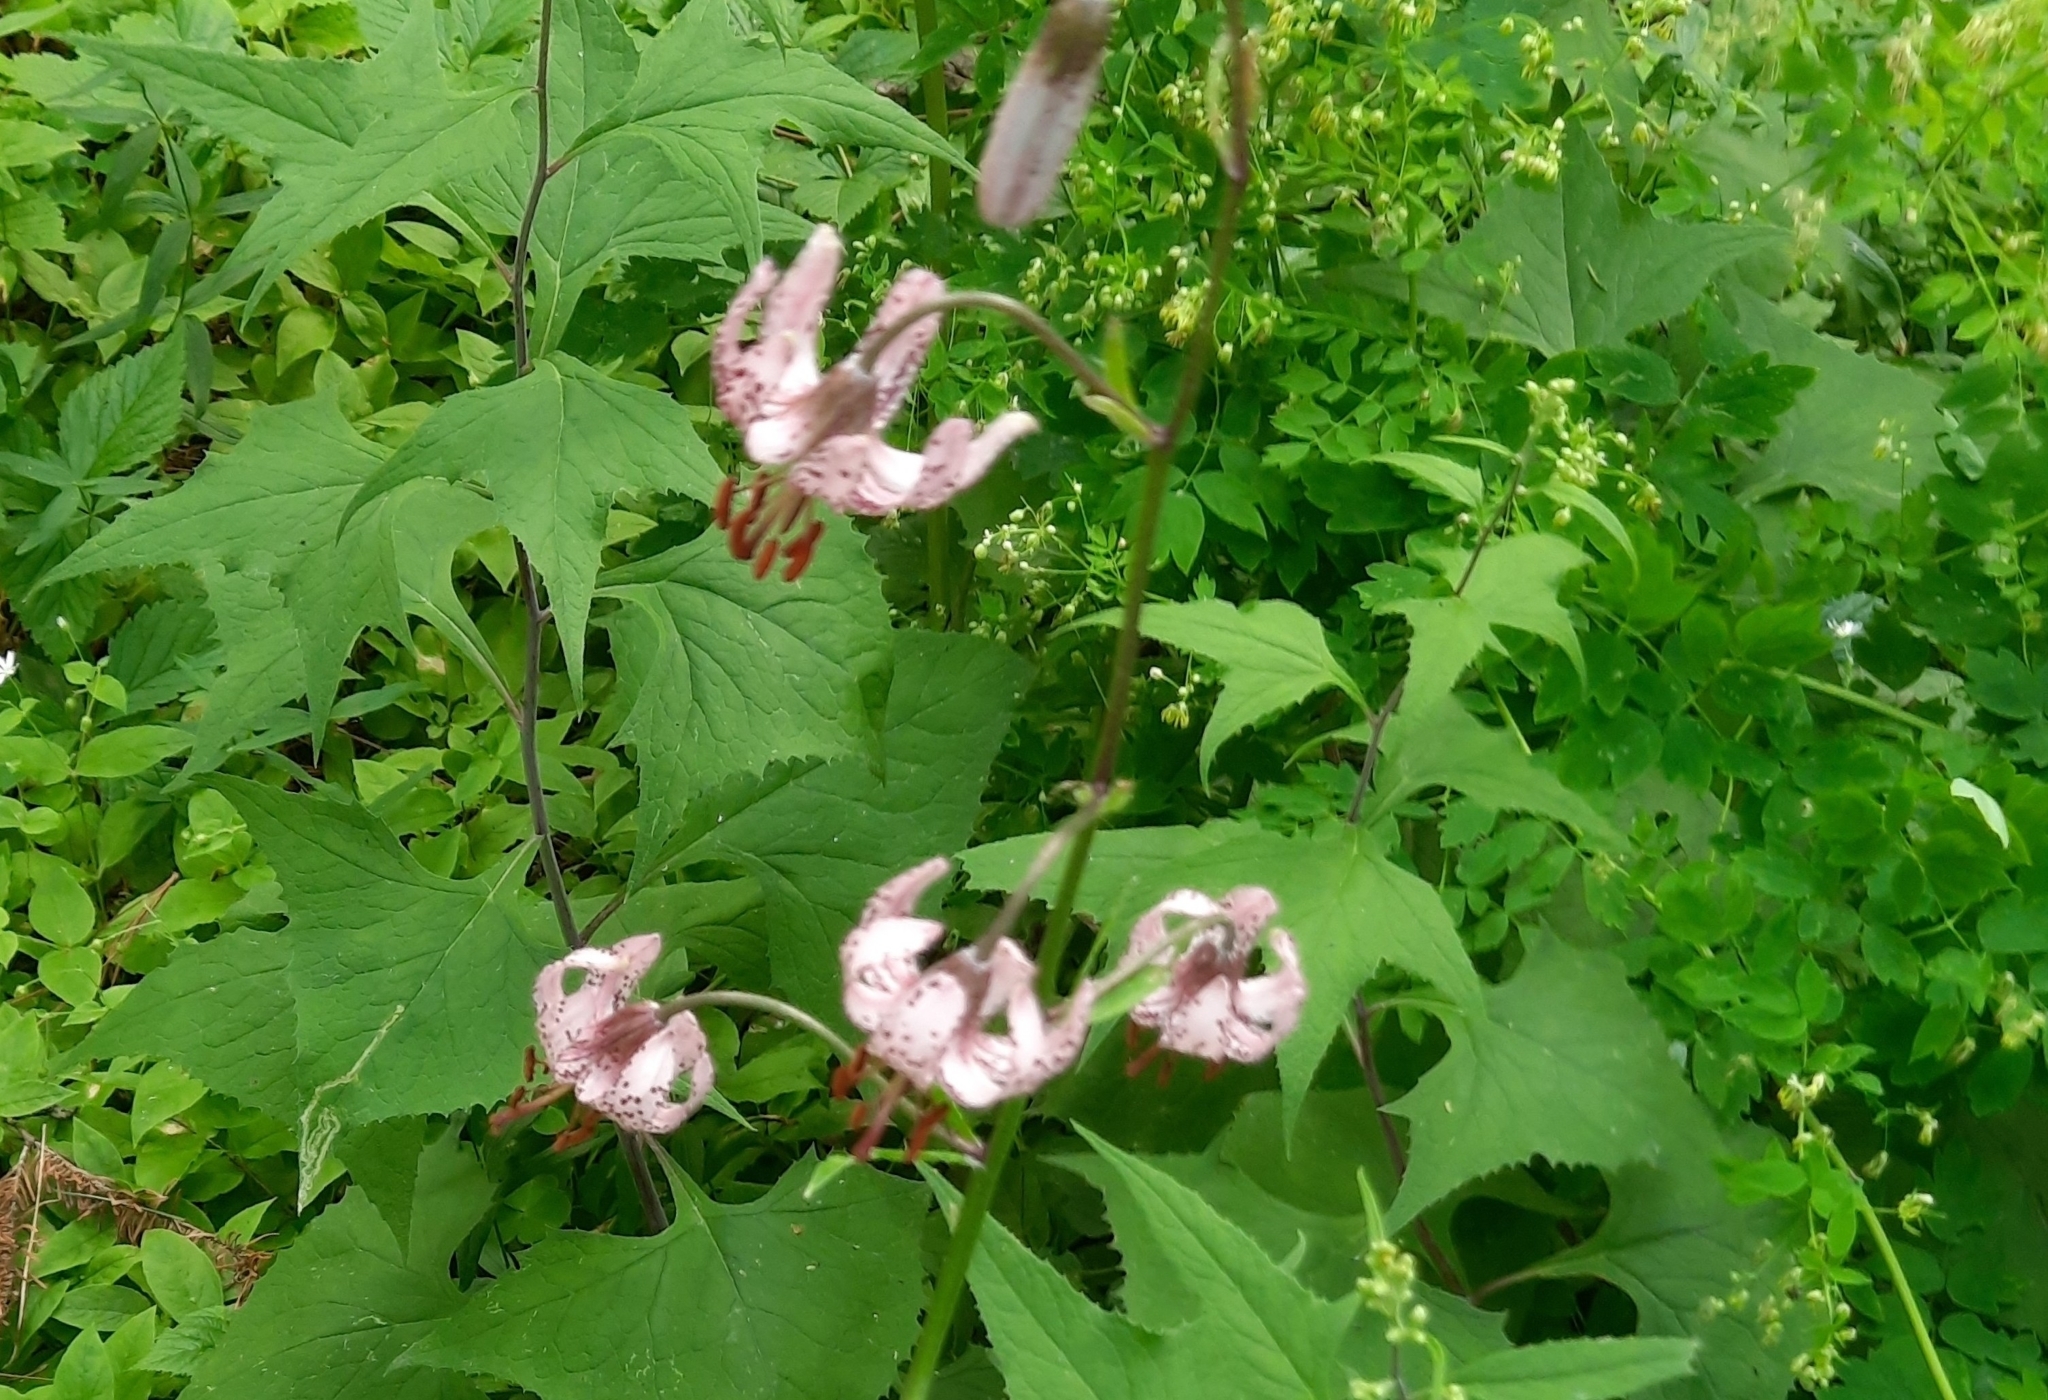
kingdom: Plantae
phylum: Tracheophyta
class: Liliopsida
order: Liliales
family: Liliaceae
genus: Lilium
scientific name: Lilium martagon
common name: Martagon lily
